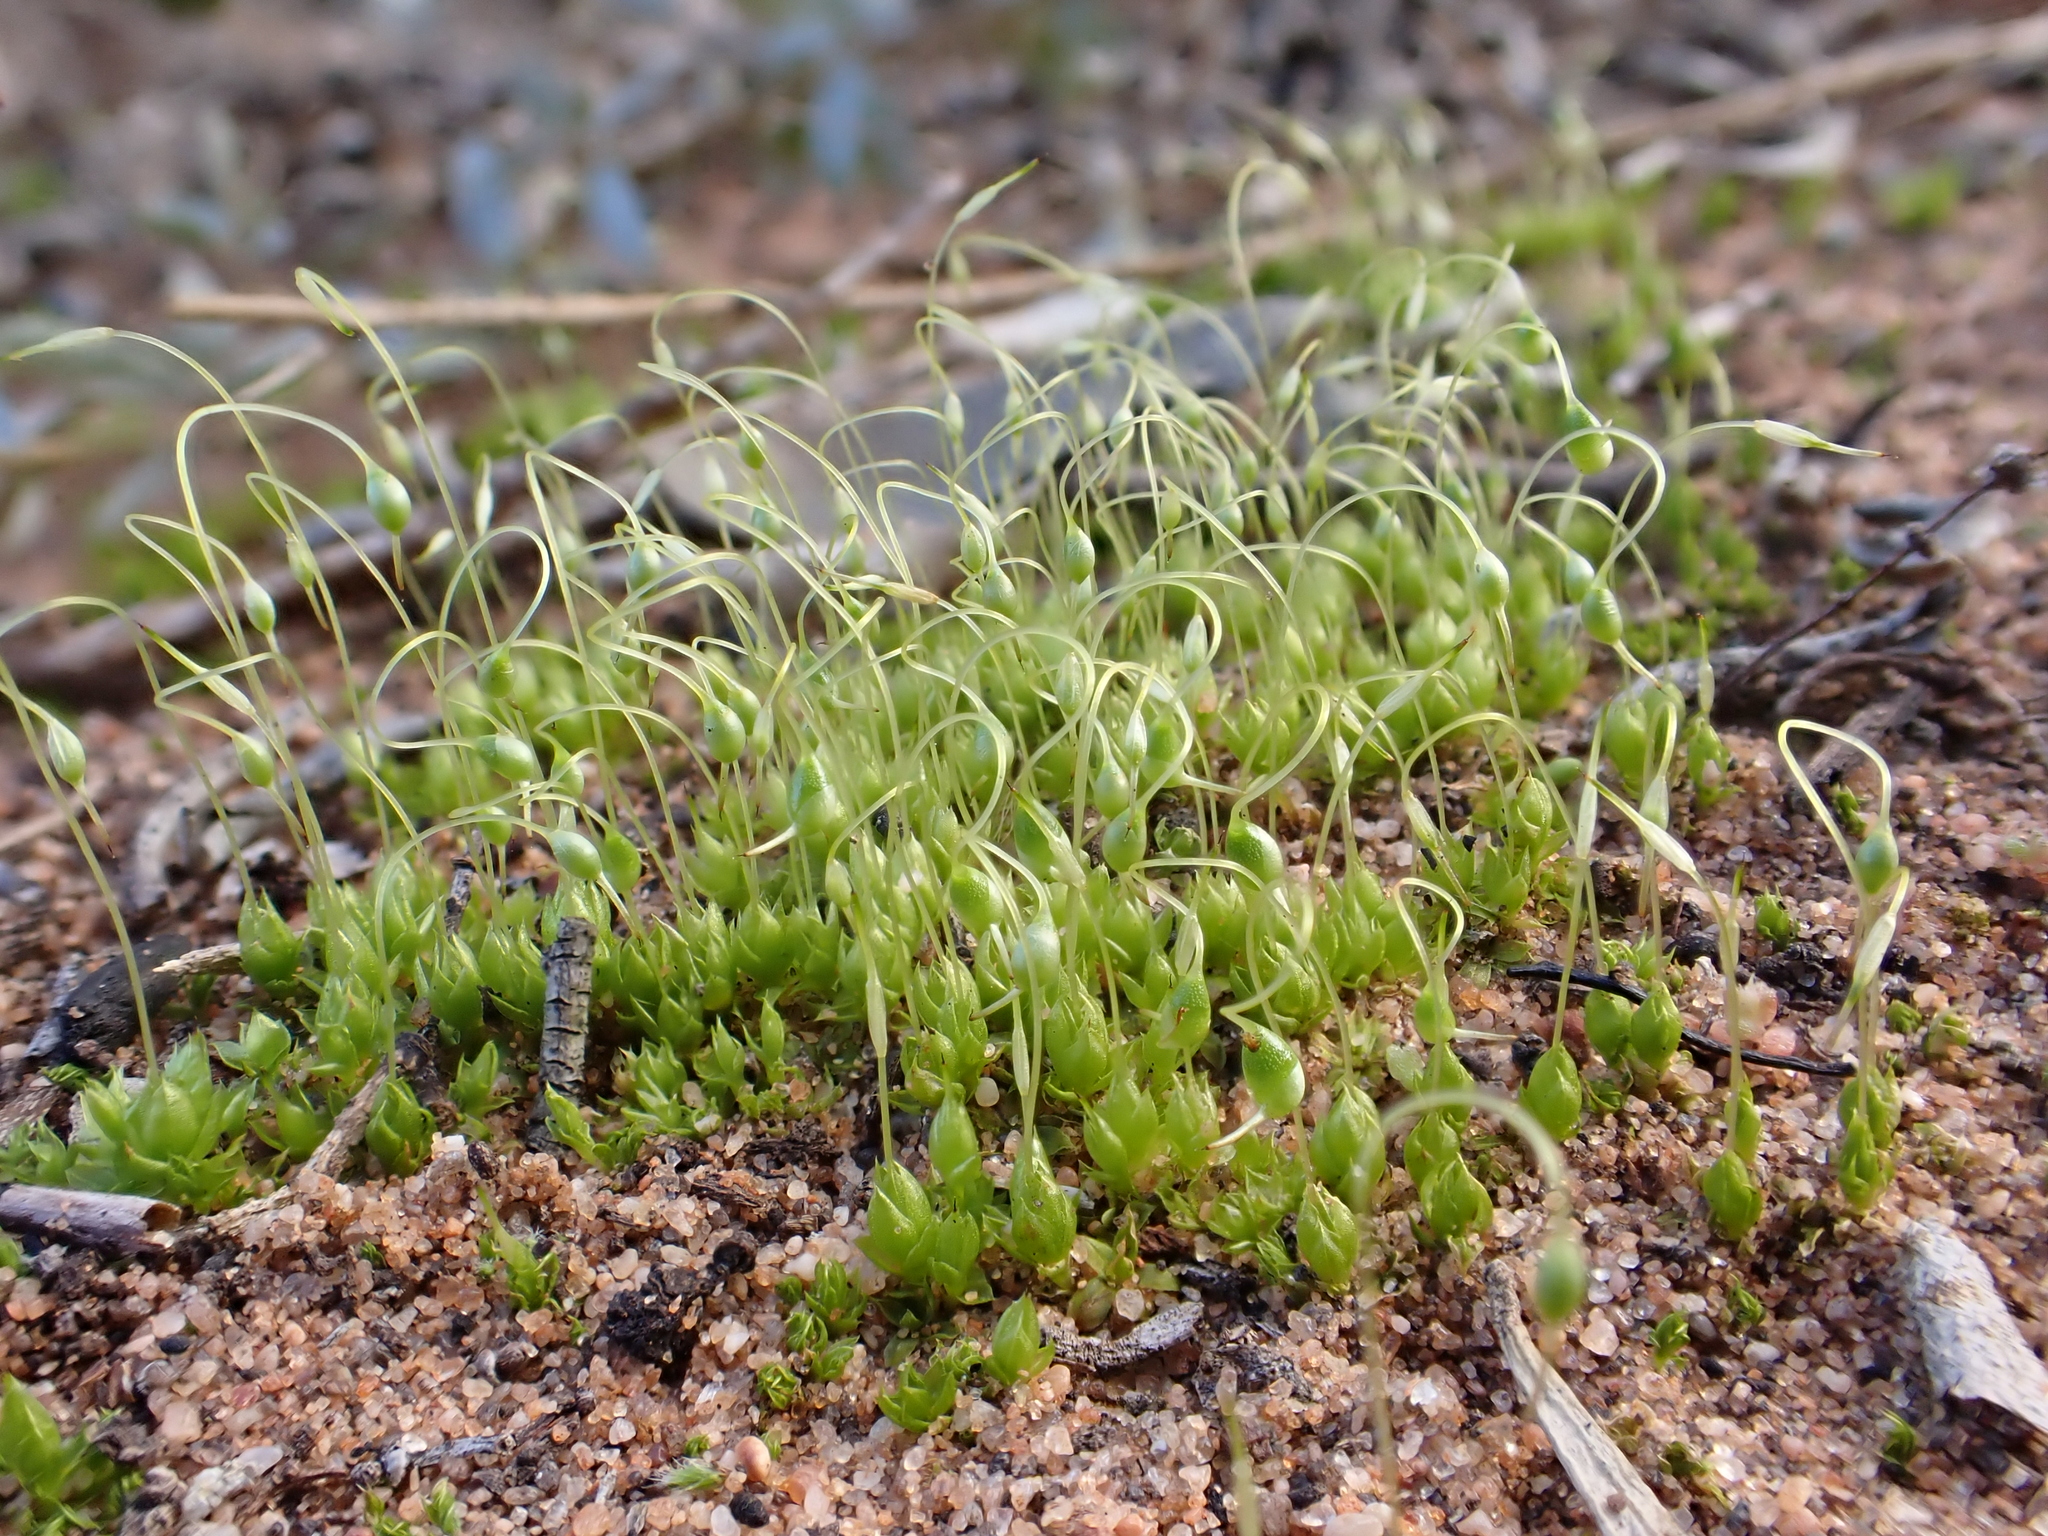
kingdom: Plantae
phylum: Bryophyta
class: Bryopsida
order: Funariales
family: Funariaceae
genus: Funaria
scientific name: Funaria hygrometrica
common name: Common cord moss
